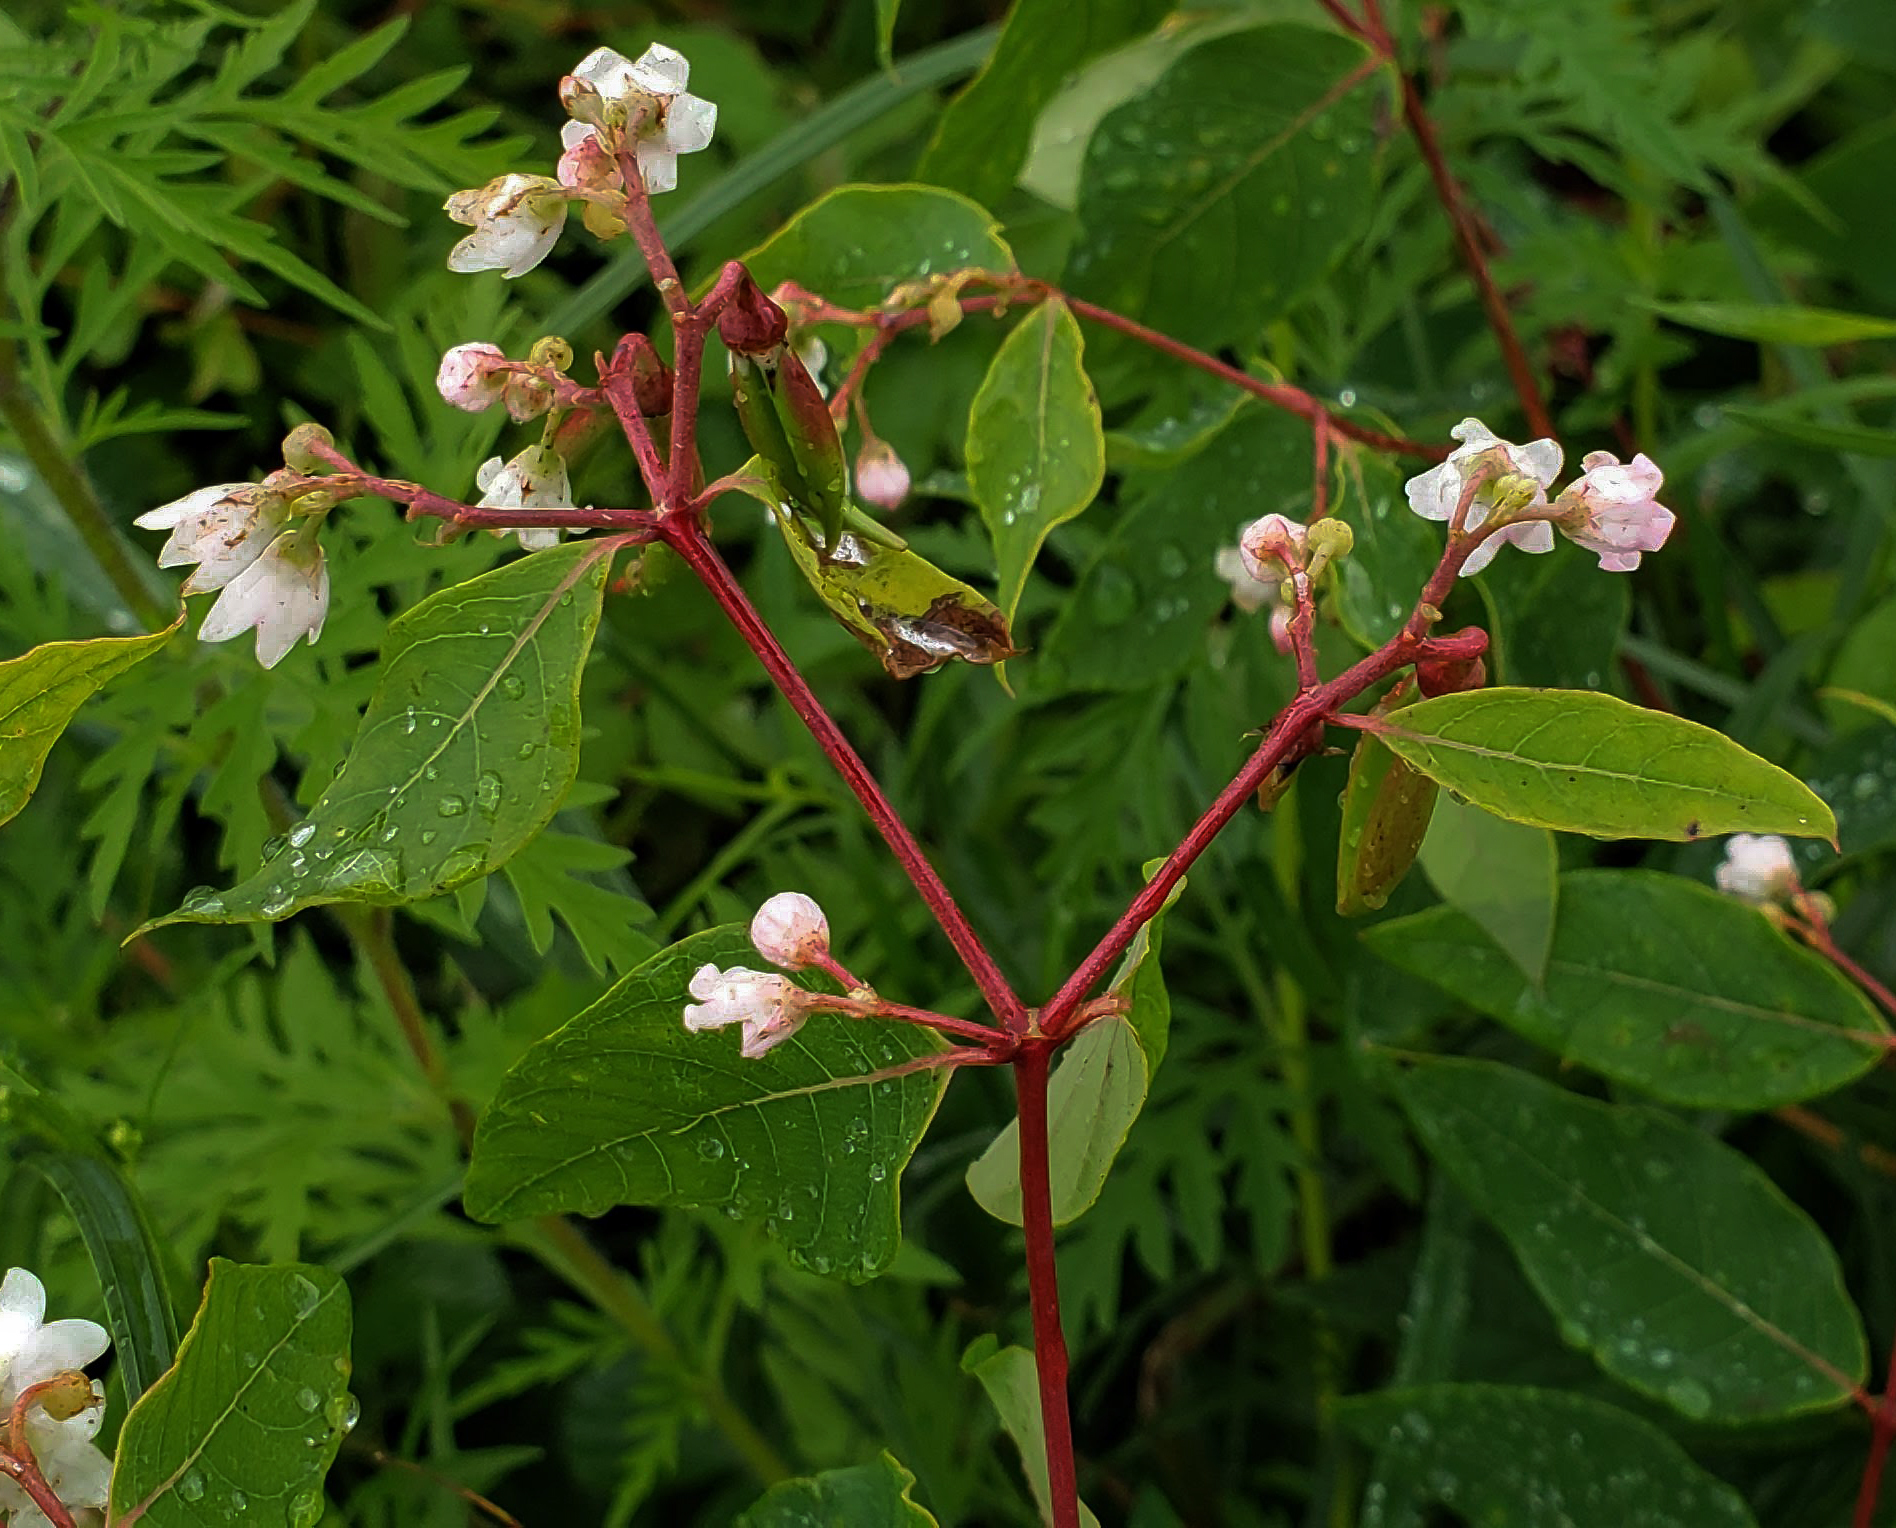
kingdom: Plantae
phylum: Tracheophyta
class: Magnoliopsida
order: Gentianales
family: Apocynaceae
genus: Apocynum
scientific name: Apocynum androsaemifolium
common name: Spreading dogbane
